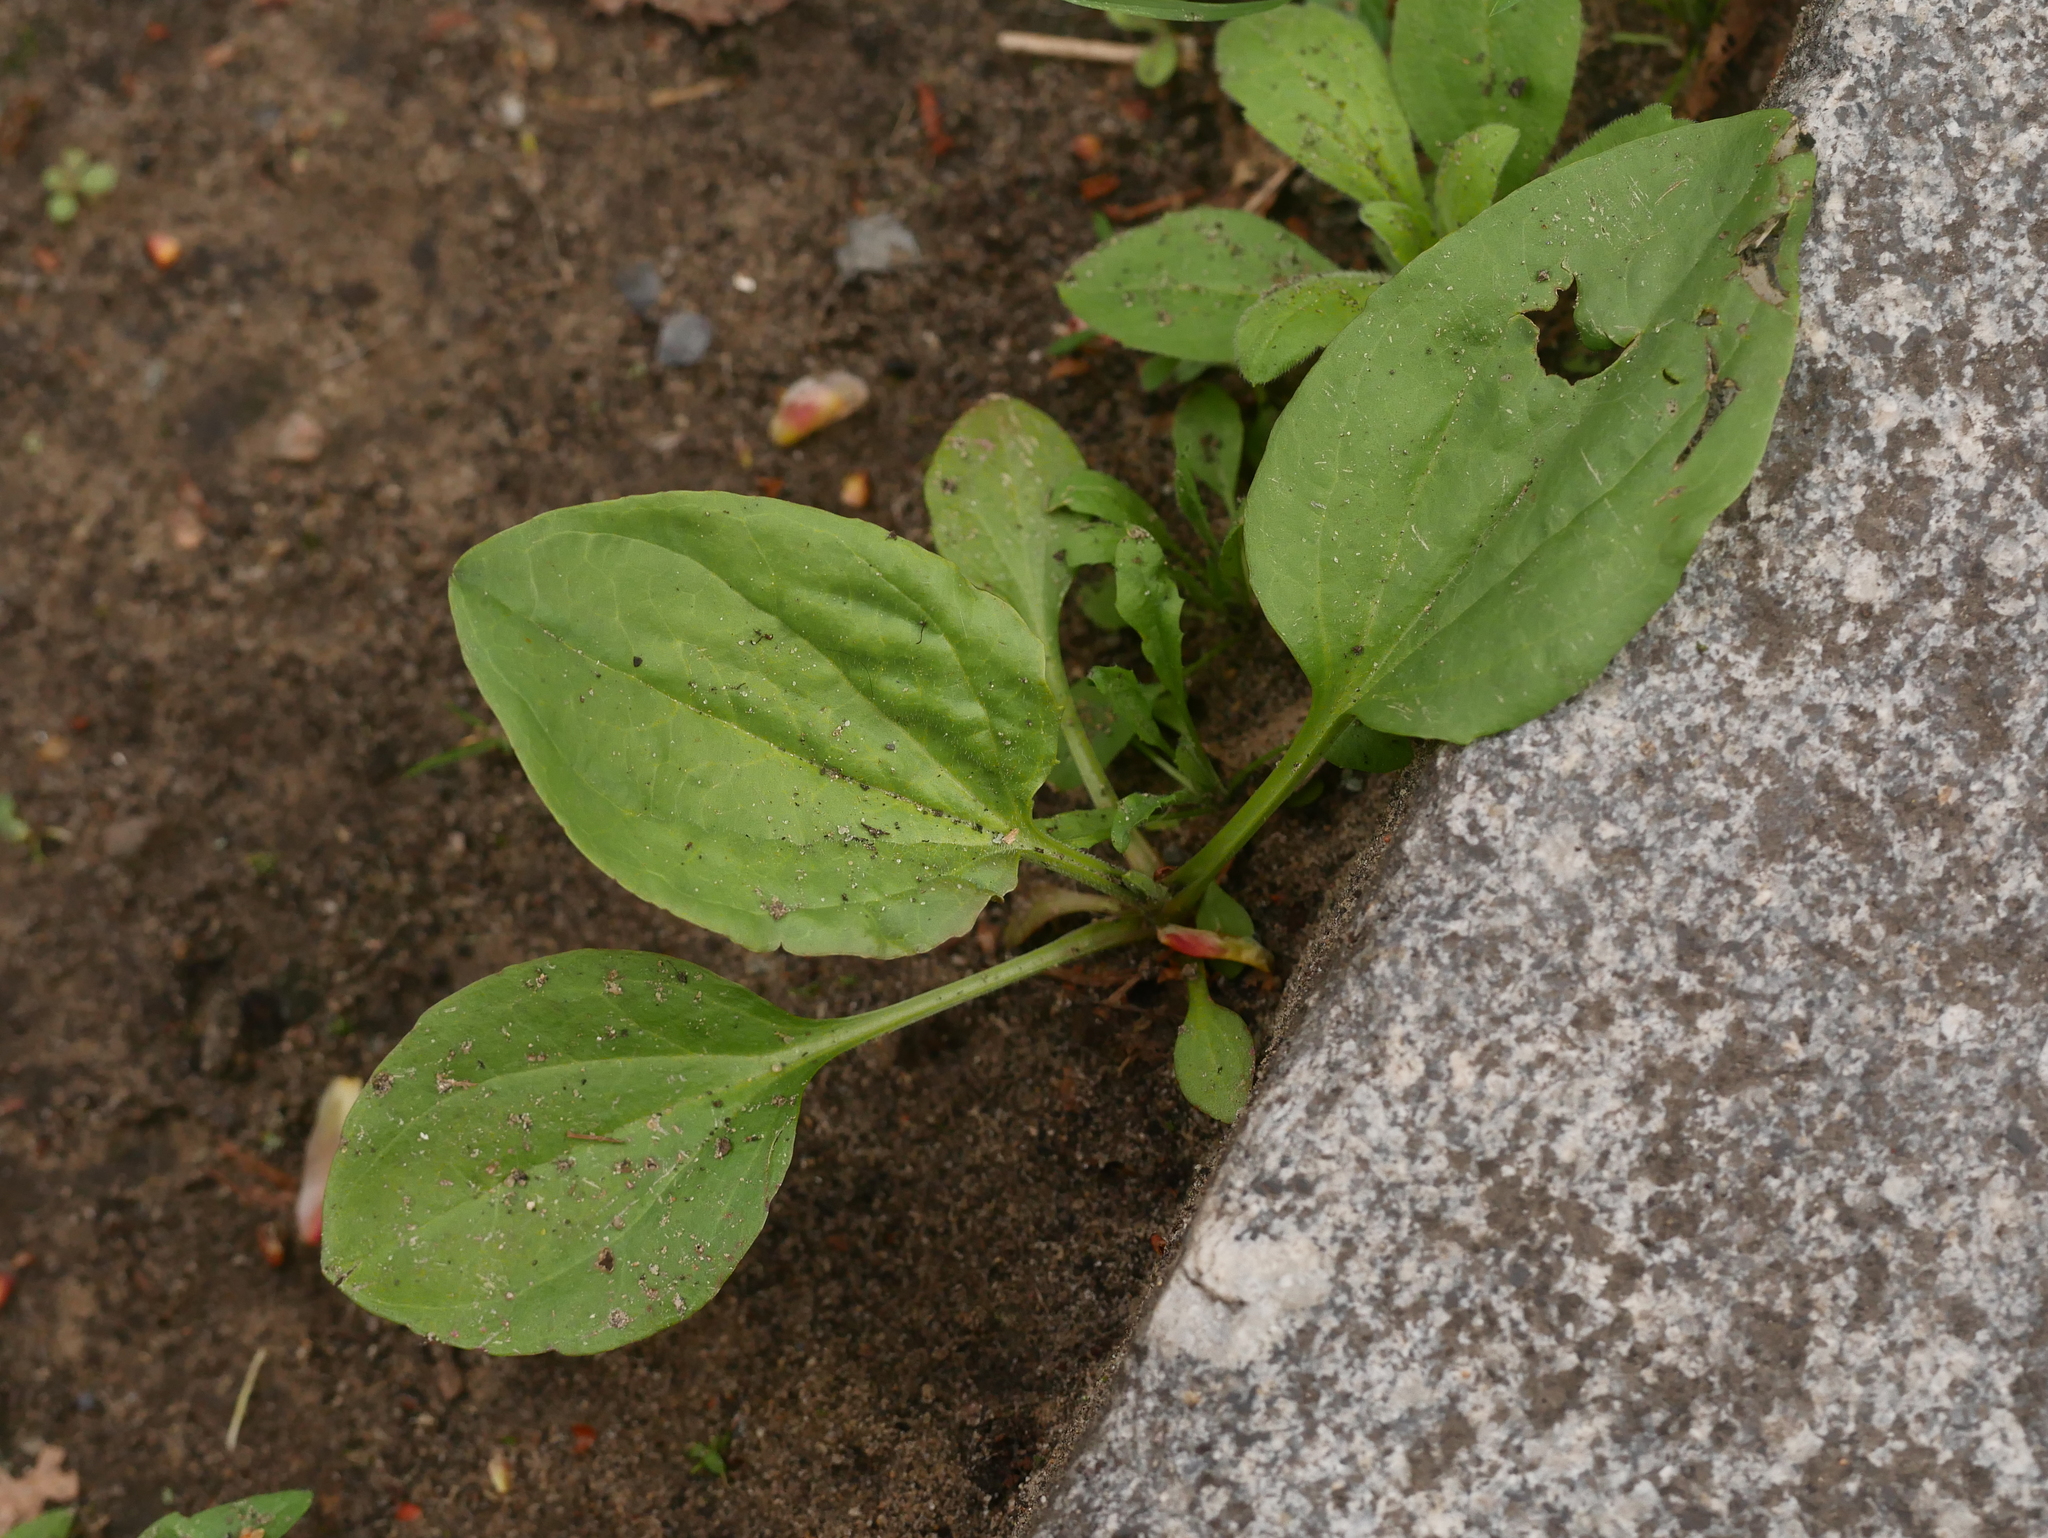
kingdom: Plantae
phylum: Tracheophyta
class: Magnoliopsida
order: Lamiales
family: Plantaginaceae
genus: Plantago
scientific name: Plantago major
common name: Common plantain
